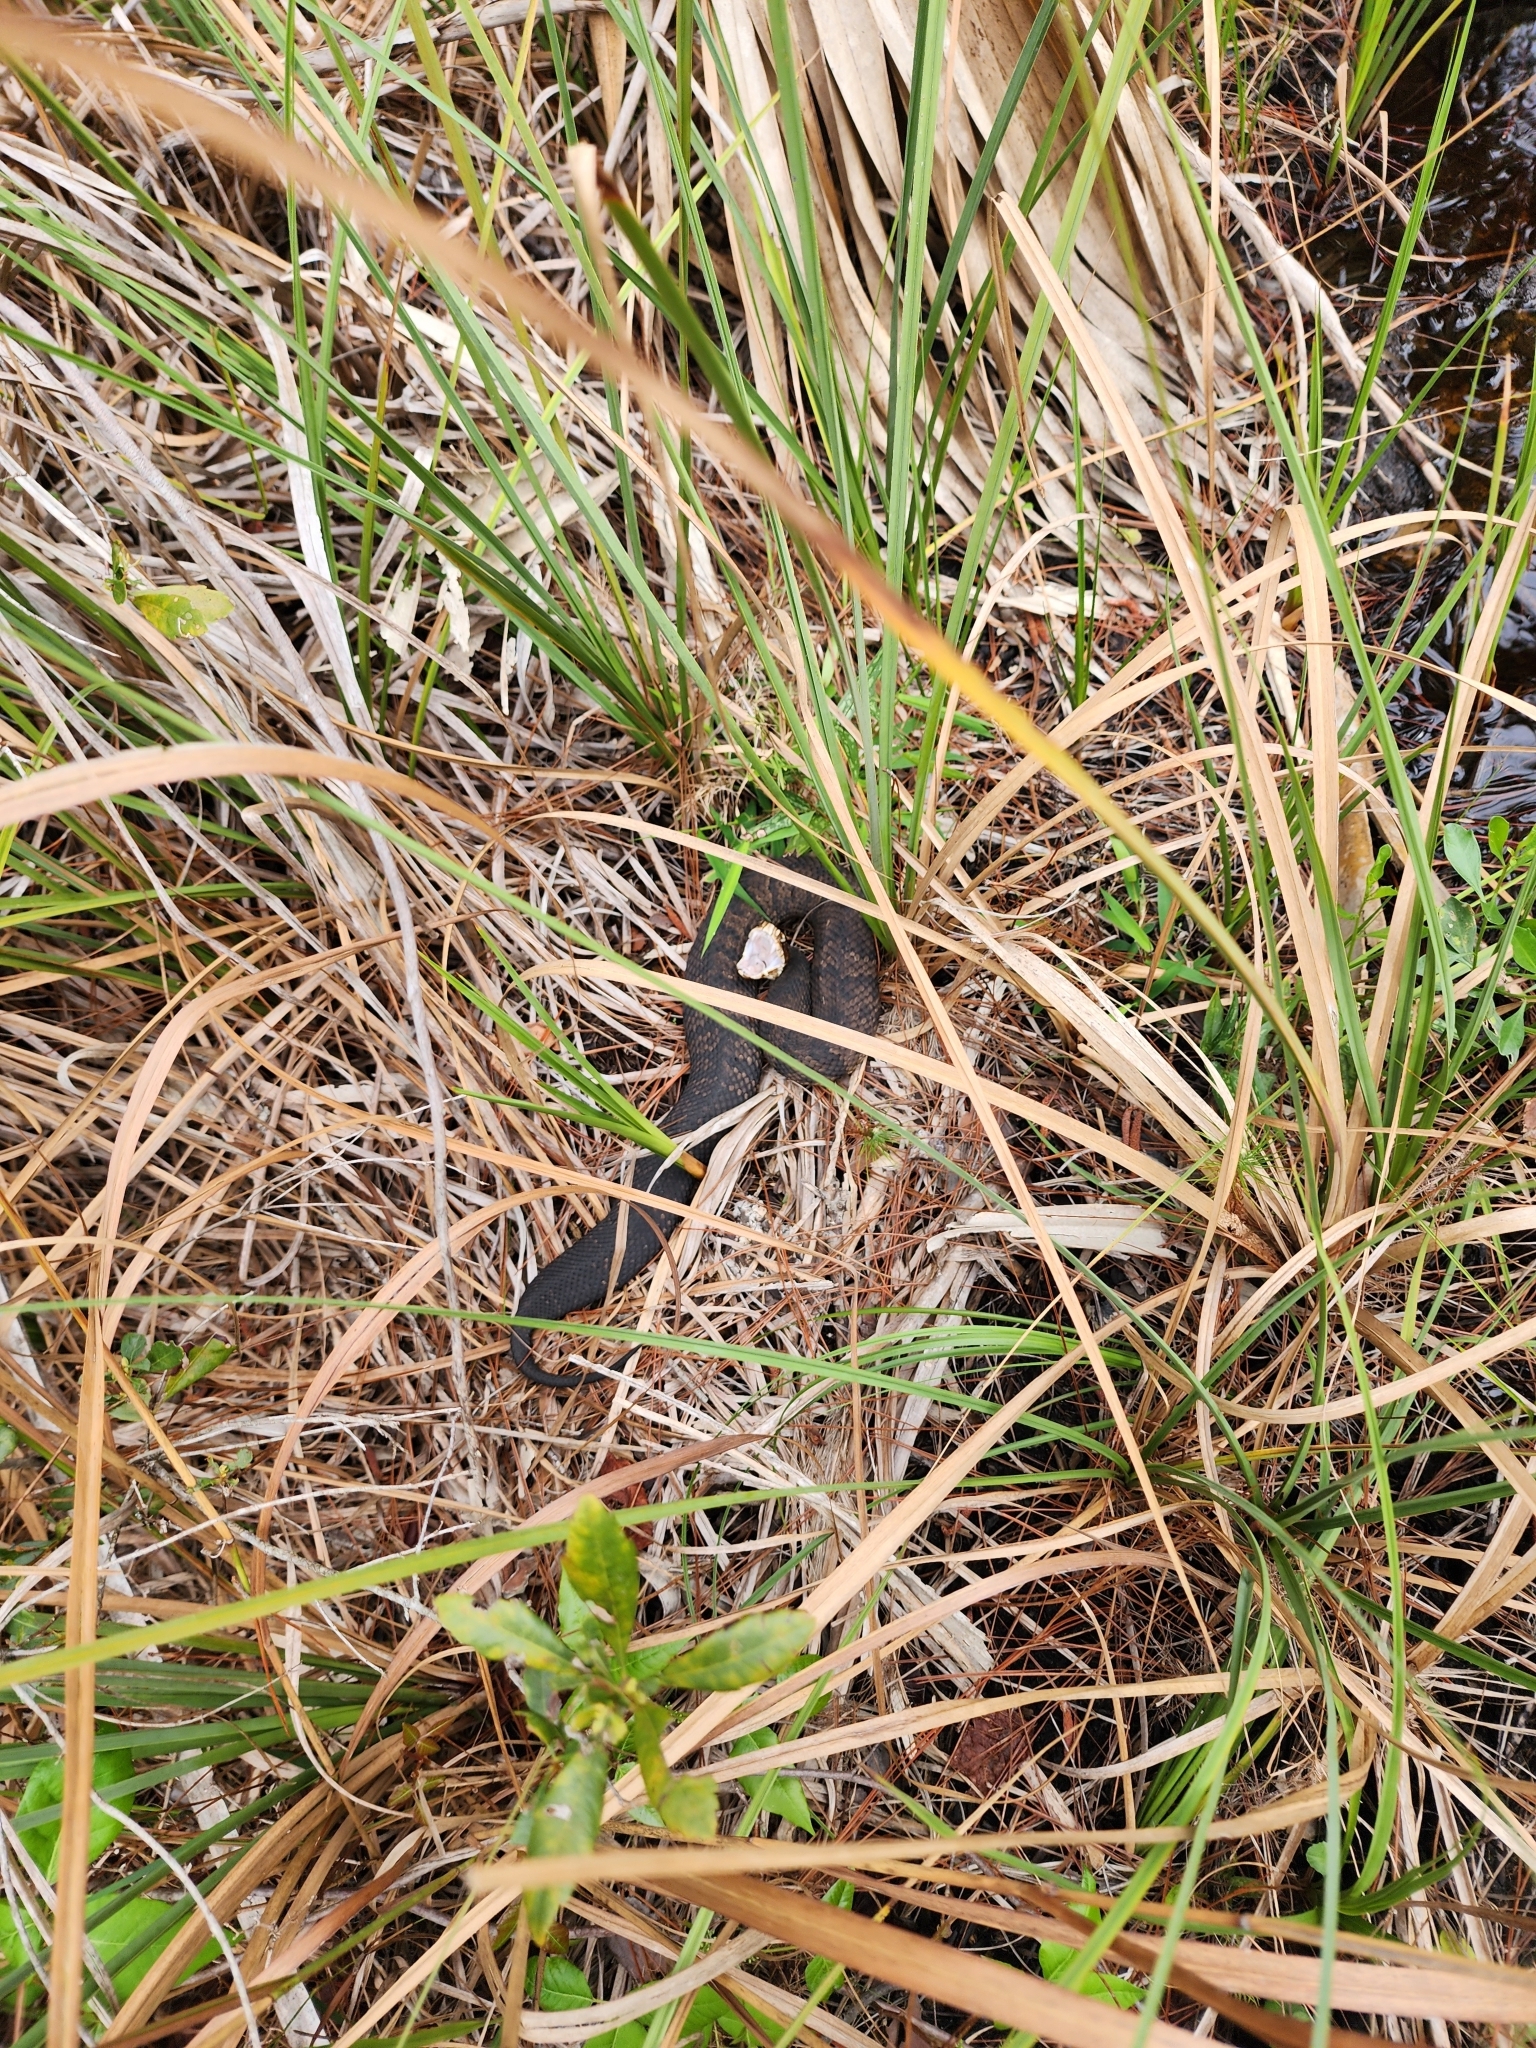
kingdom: Animalia
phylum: Chordata
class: Squamata
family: Viperidae
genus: Agkistrodon
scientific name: Agkistrodon conanti
